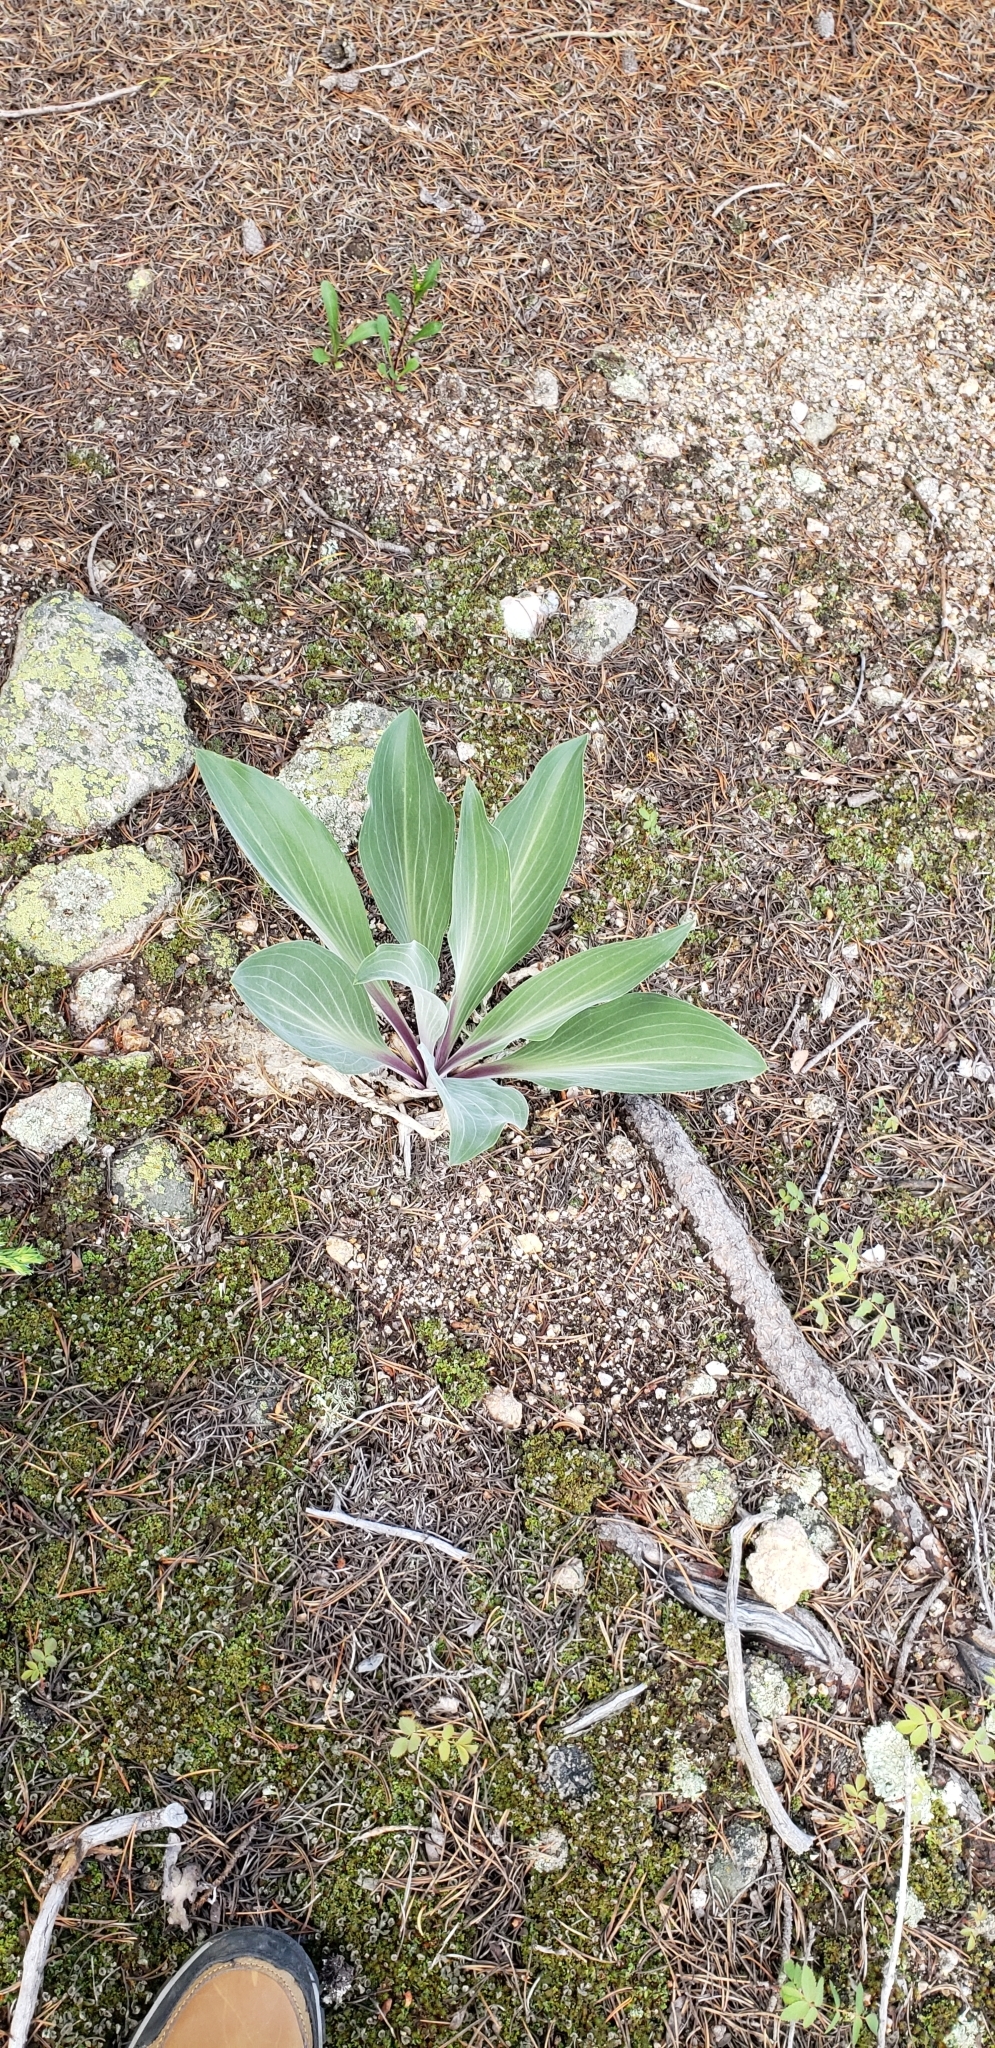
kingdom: Plantae
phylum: Tracheophyta
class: Magnoliopsida
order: Gentianales
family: Gentianaceae
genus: Frasera
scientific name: Frasera speciosa
